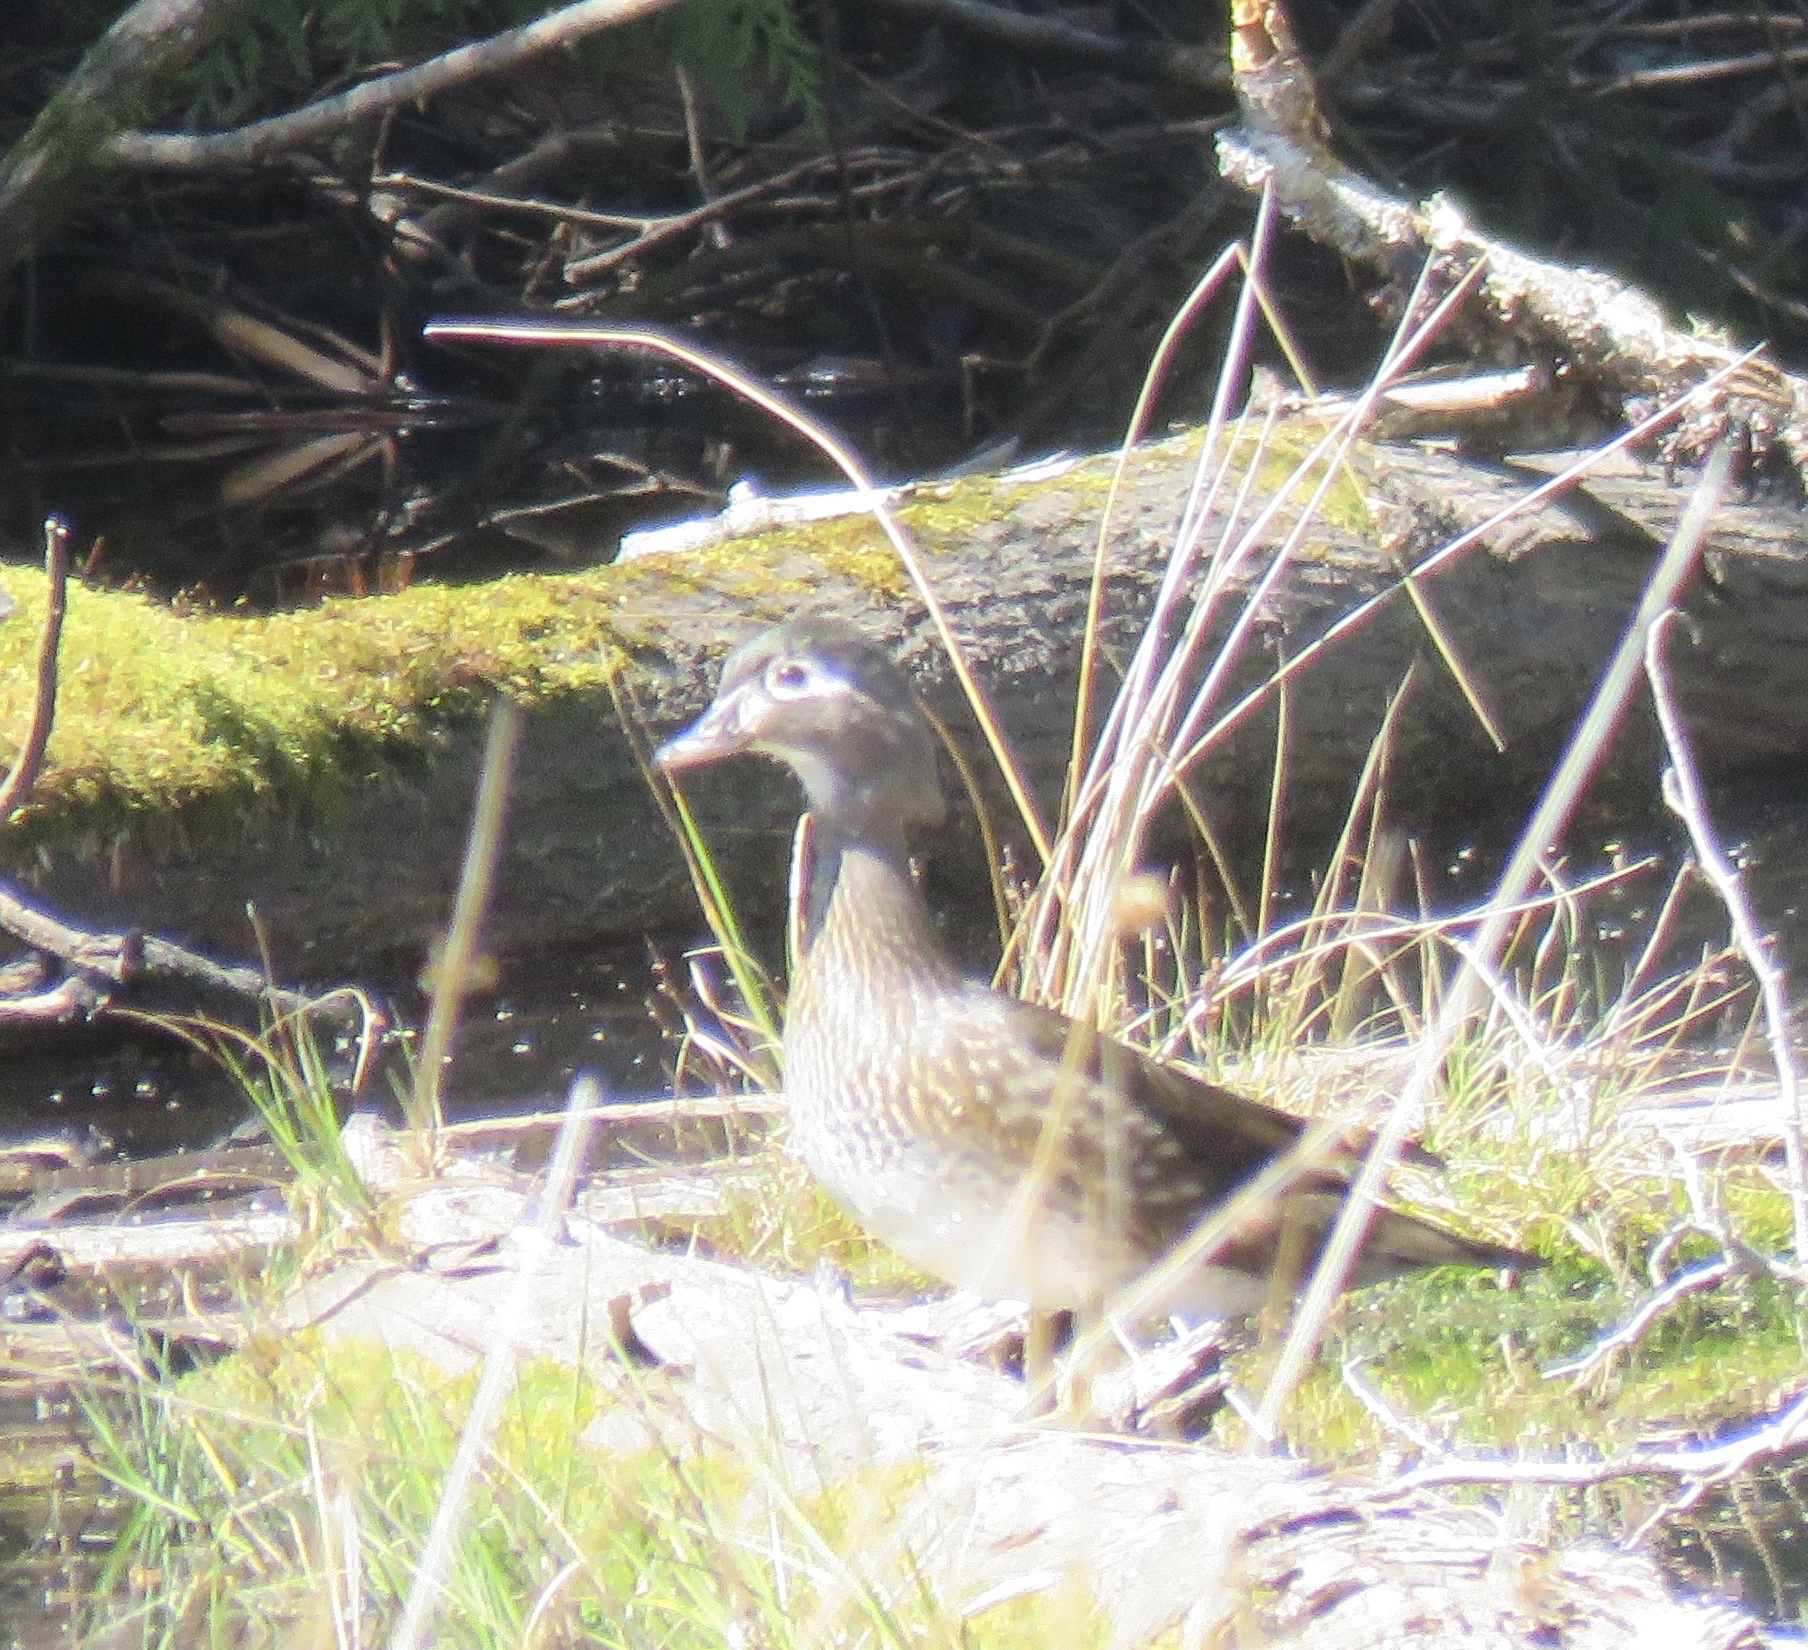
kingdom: Animalia
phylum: Chordata
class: Aves
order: Anseriformes
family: Anatidae
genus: Aix
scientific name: Aix sponsa
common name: Wood duck
